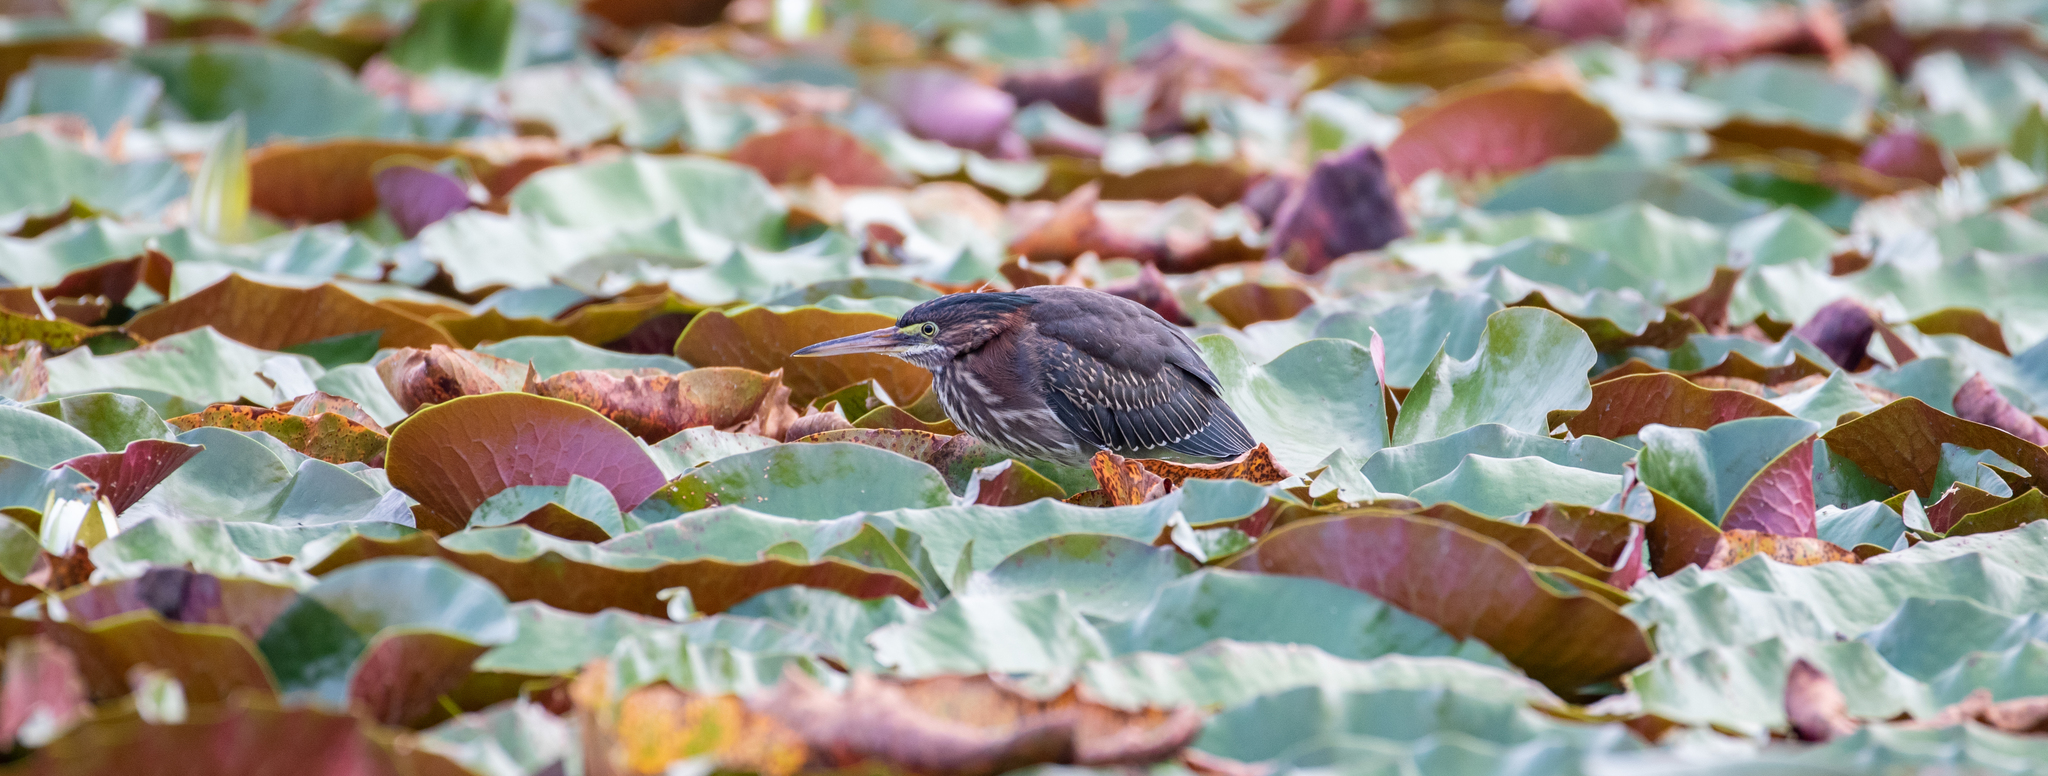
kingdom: Animalia
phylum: Chordata
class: Aves
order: Pelecaniformes
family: Ardeidae
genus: Butorides
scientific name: Butorides virescens
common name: Green heron
